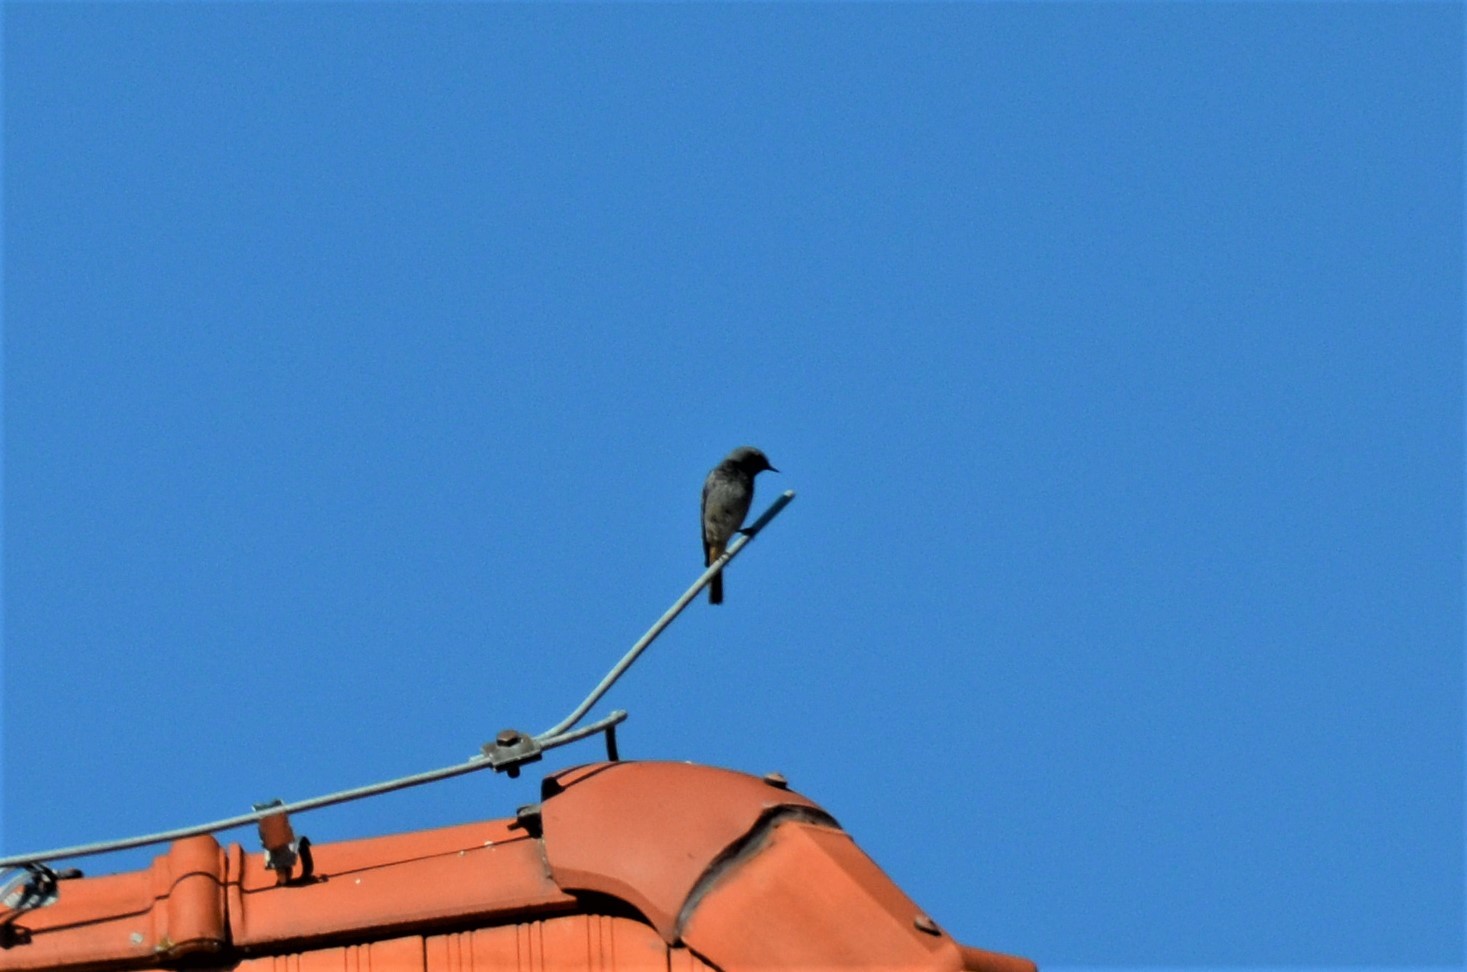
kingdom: Animalia
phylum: Chordata
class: Aves
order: Passeriformes
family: Muscicapidae
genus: Phoenicurus
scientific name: Phoenicurus ochruros
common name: Black redstart
